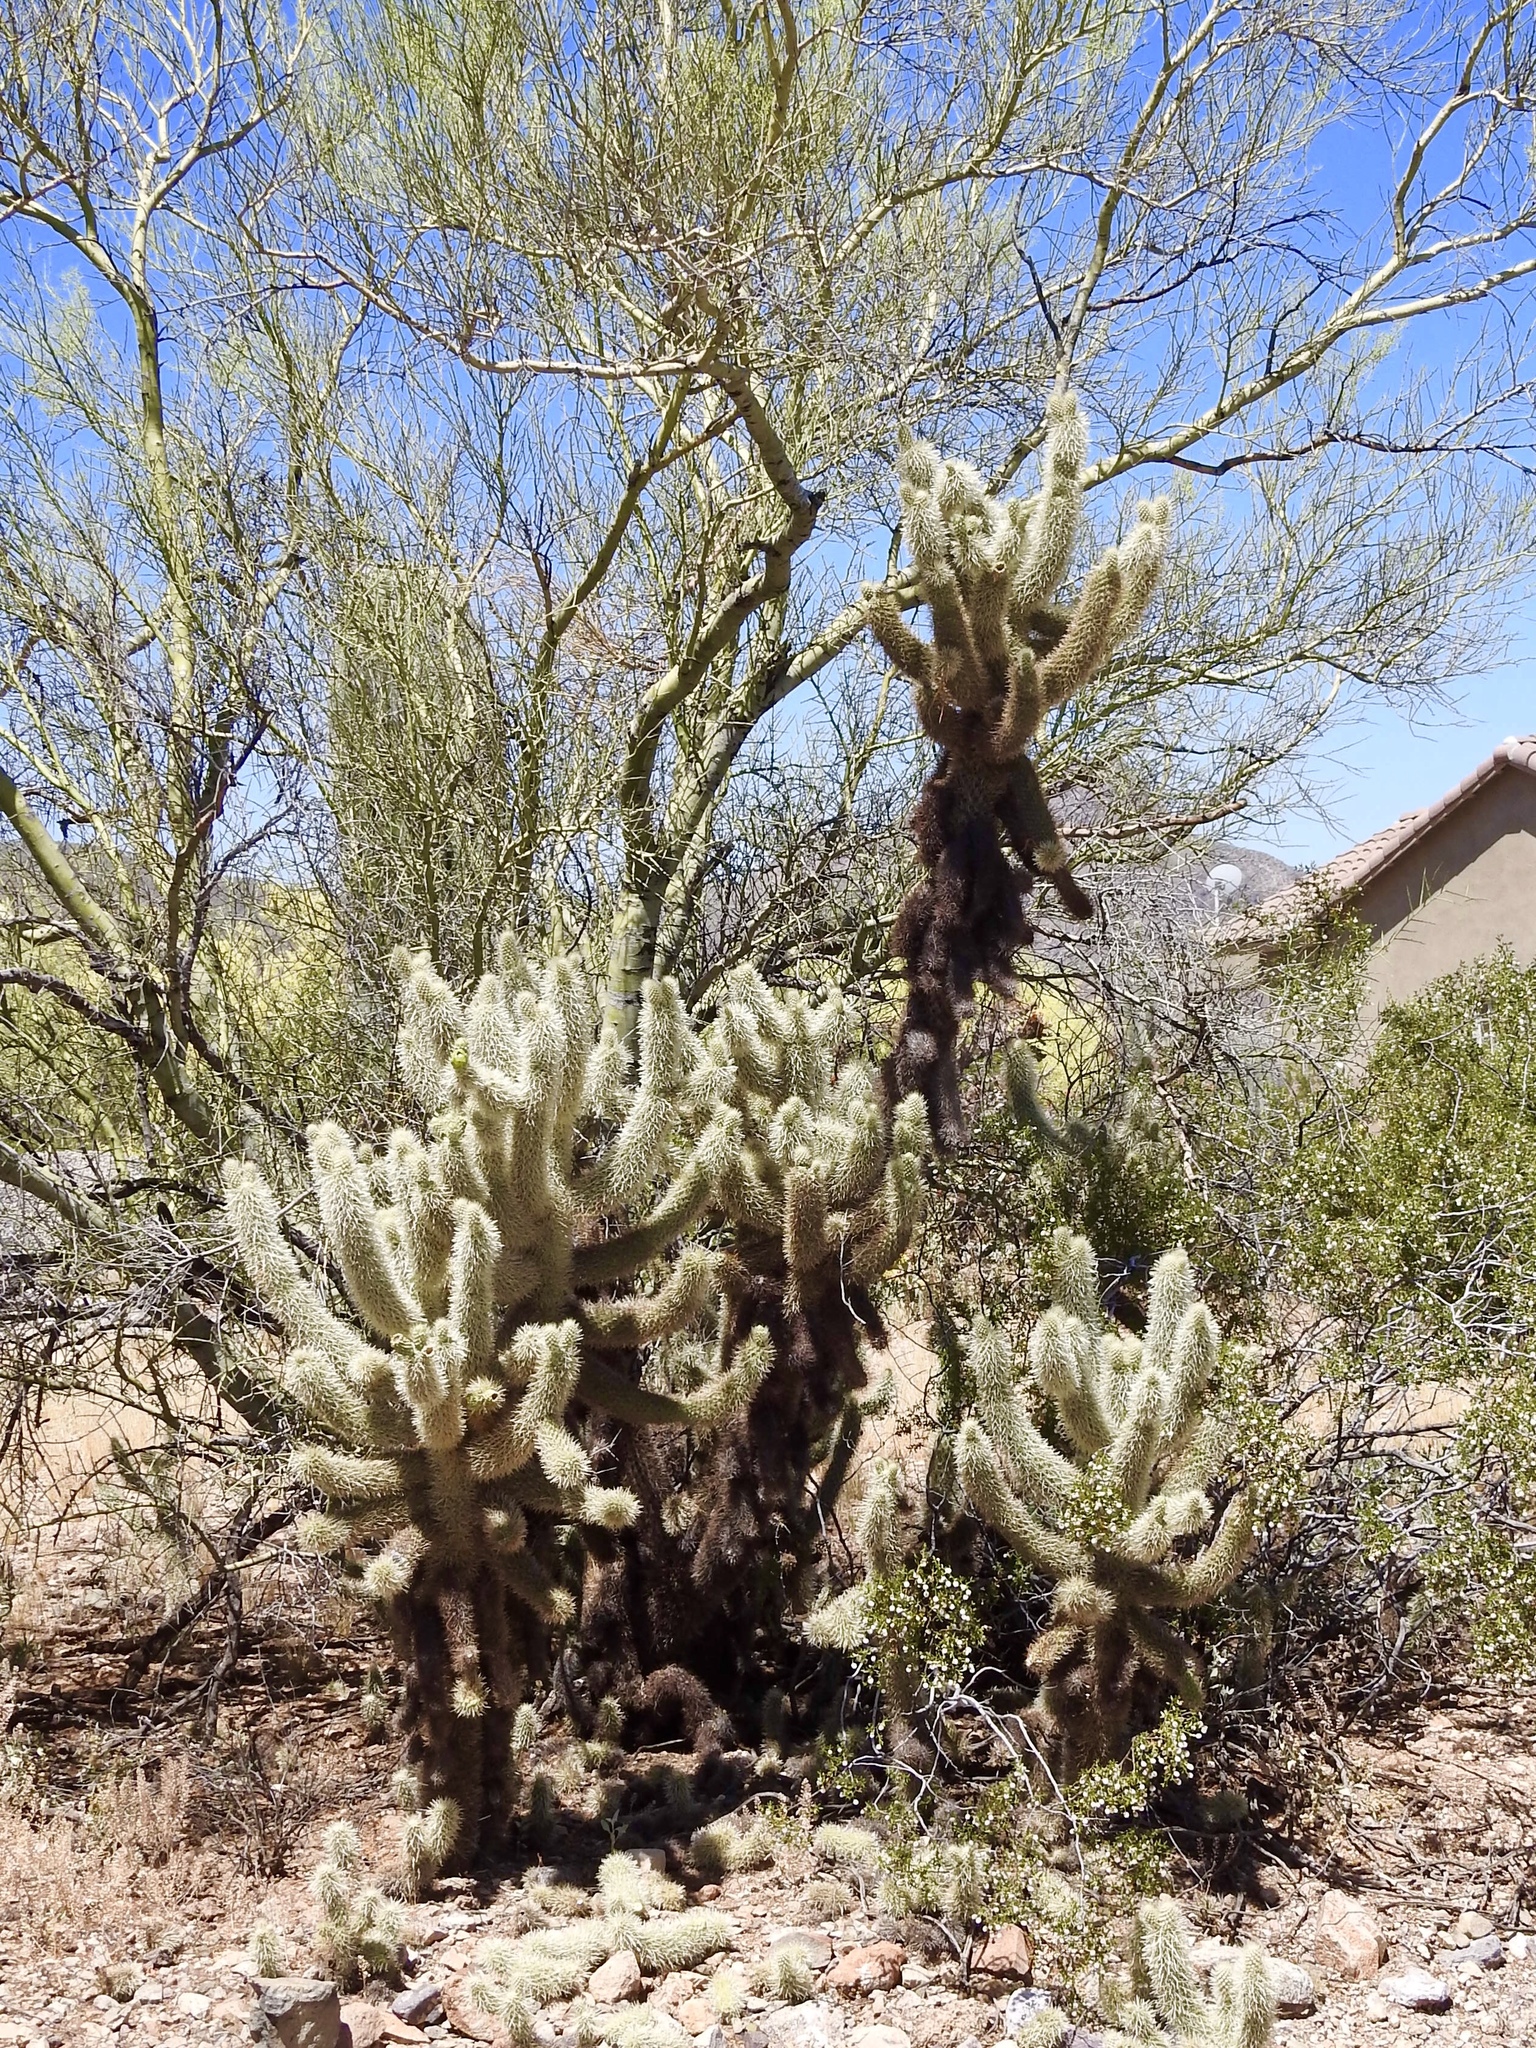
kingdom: Plantae
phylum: Tracheophyta
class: Magnoliopsida
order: Caryophyllales
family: Cactaceae
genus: Cylindropuntia
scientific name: Cylindropuntia fosbergii
